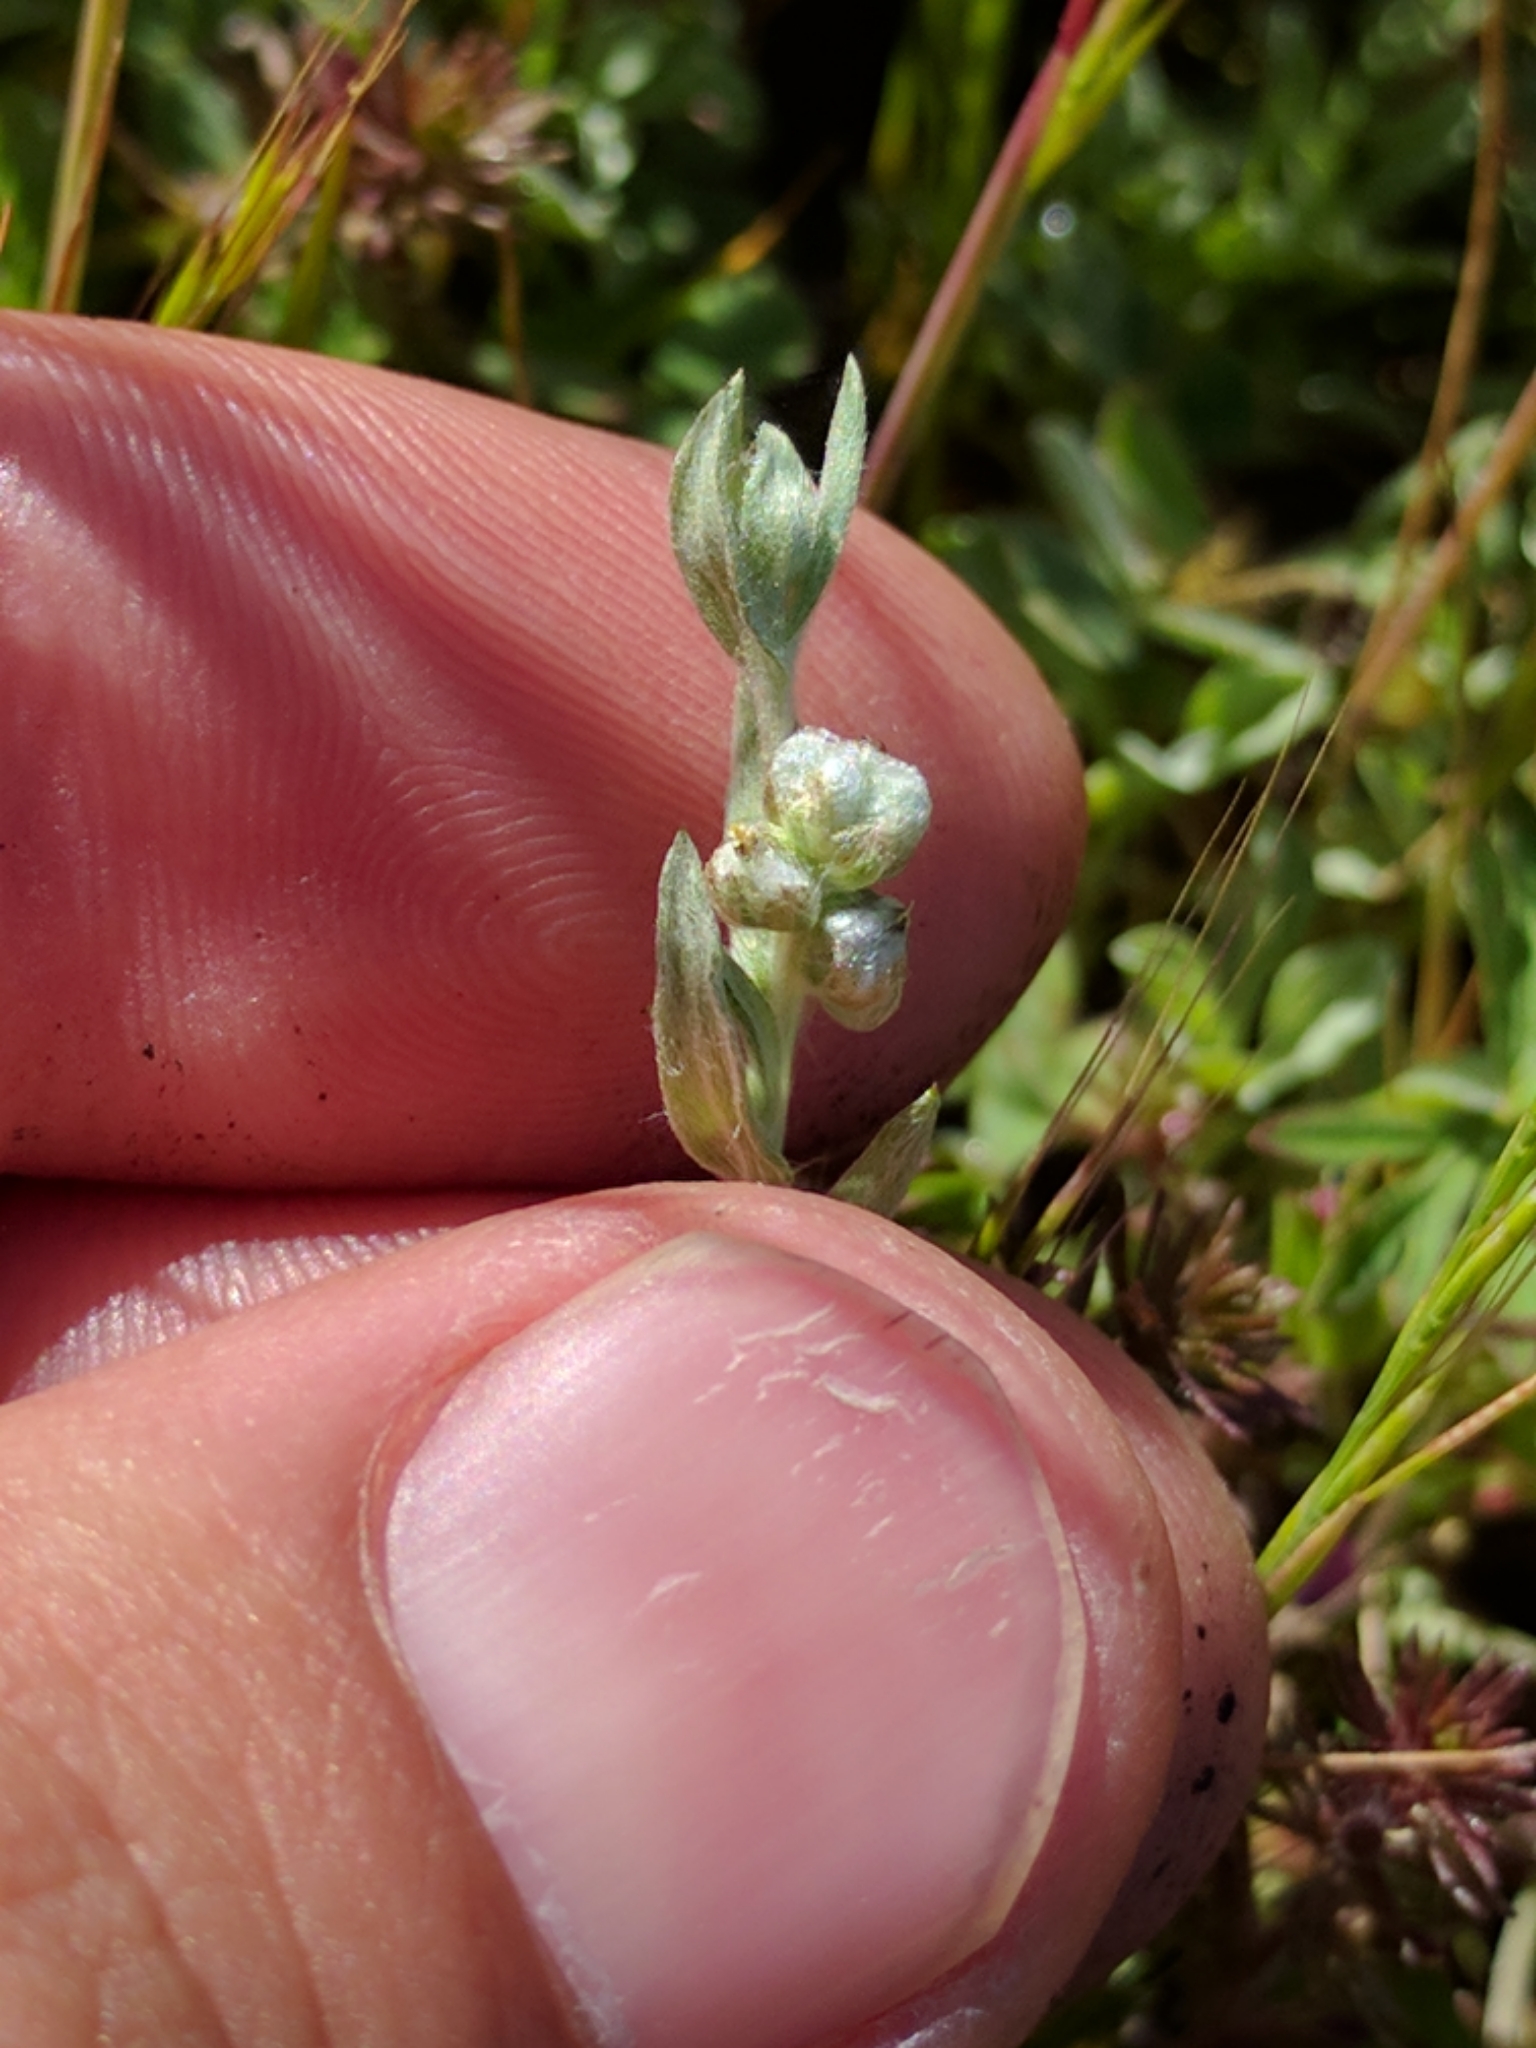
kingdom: Plantae
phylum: Tracheophyta
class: Magnoliopsida
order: Asterales
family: Asteraceae
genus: Bombycilaena
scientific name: Bombycilaena californica
